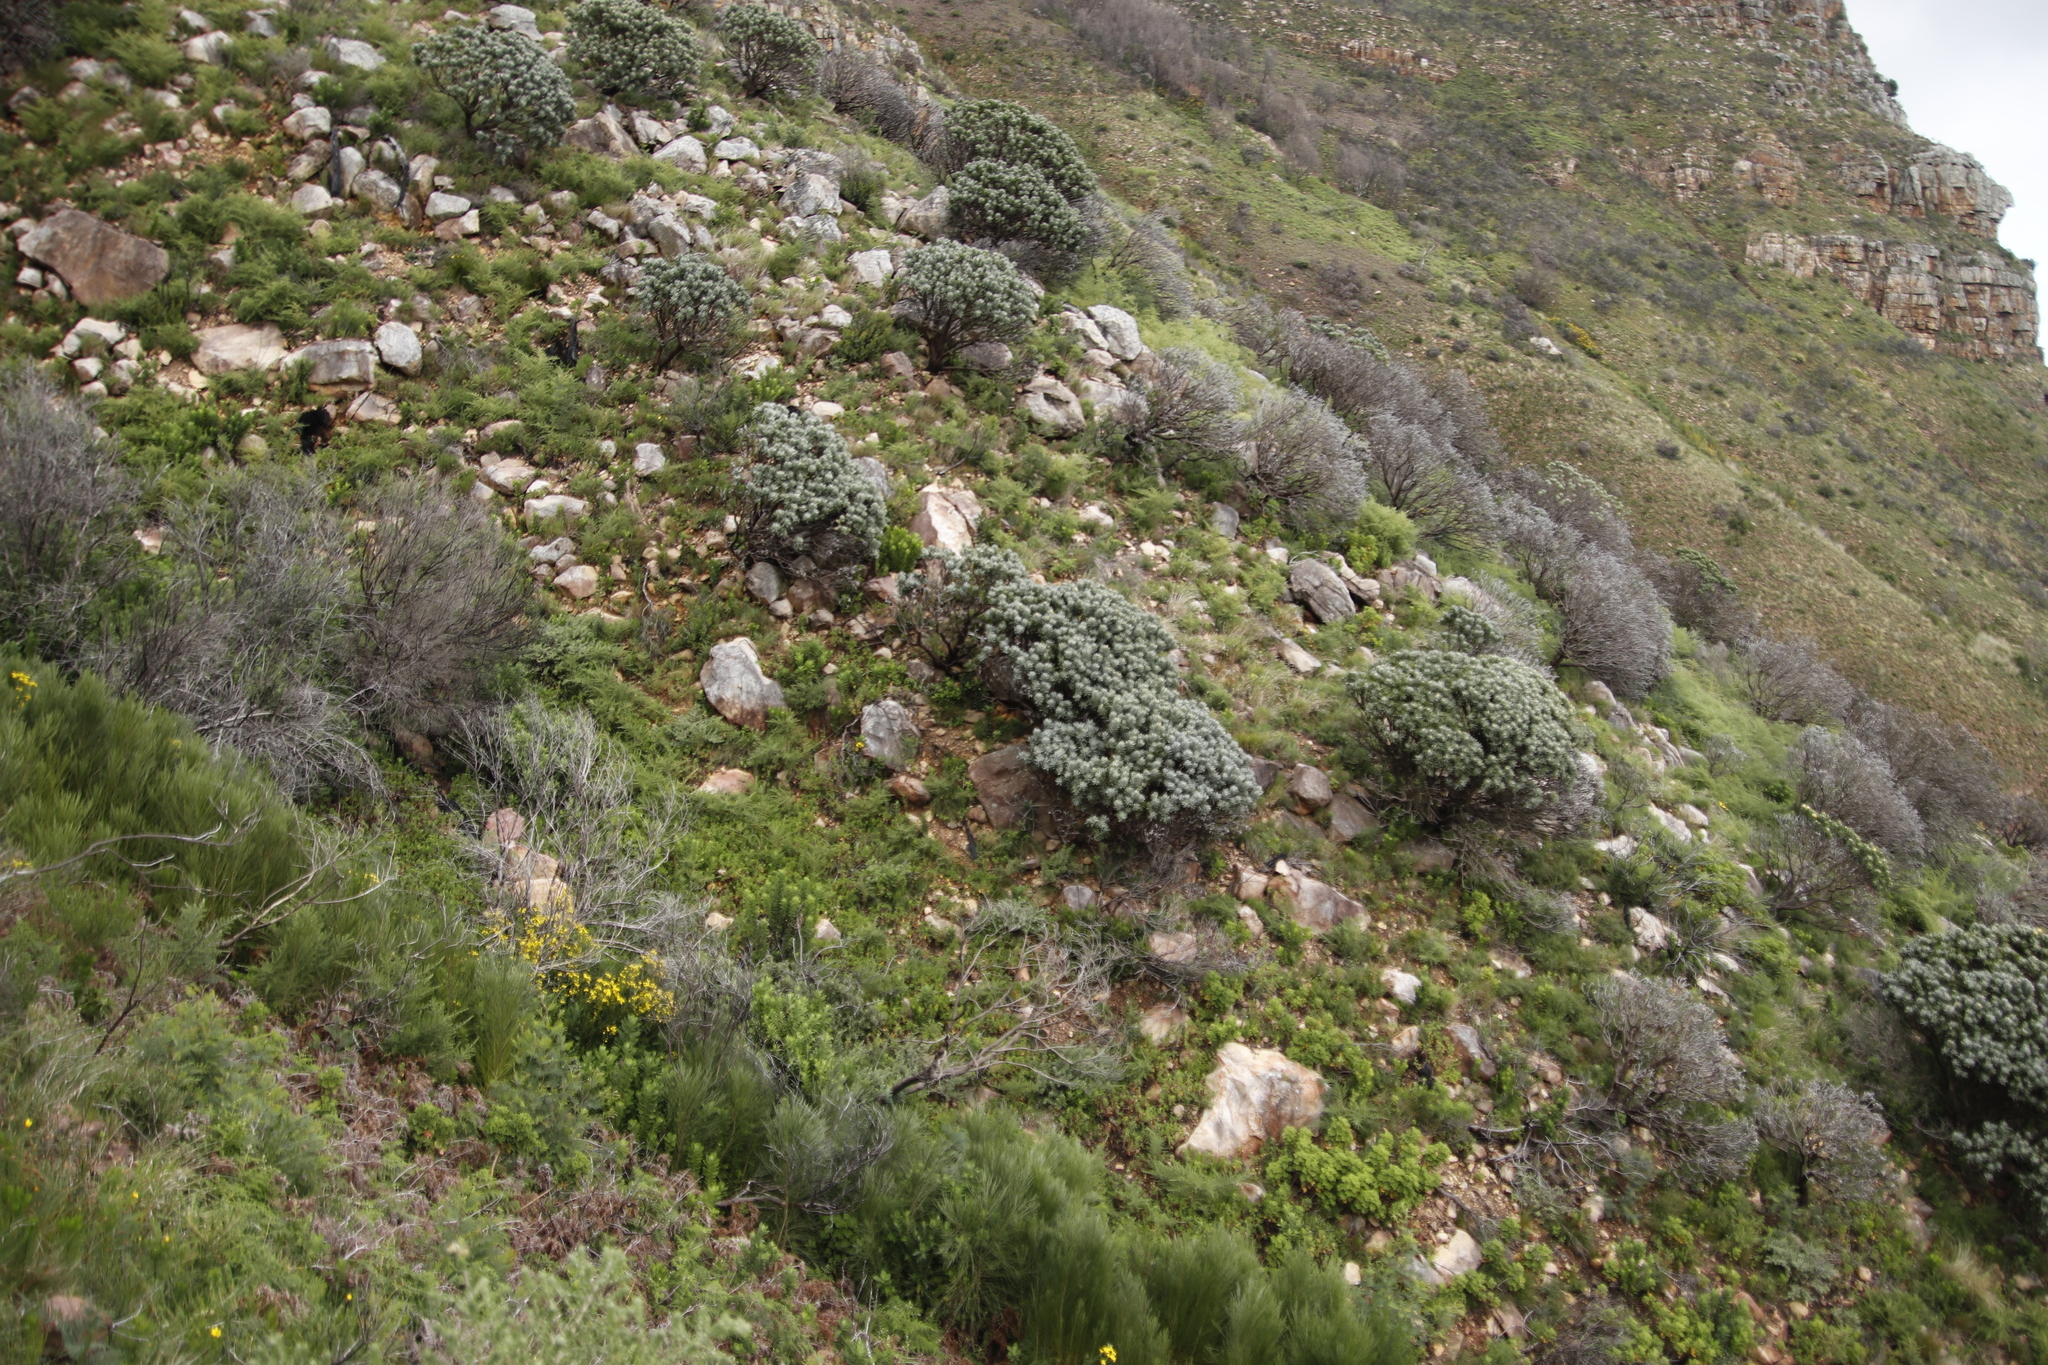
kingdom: Plantae
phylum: Tracheophyta
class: Magnoliopsida
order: Proteales
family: Proteaceae
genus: Leucospermum
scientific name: Leucospermum conocarpodendron
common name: Tree pincushion
